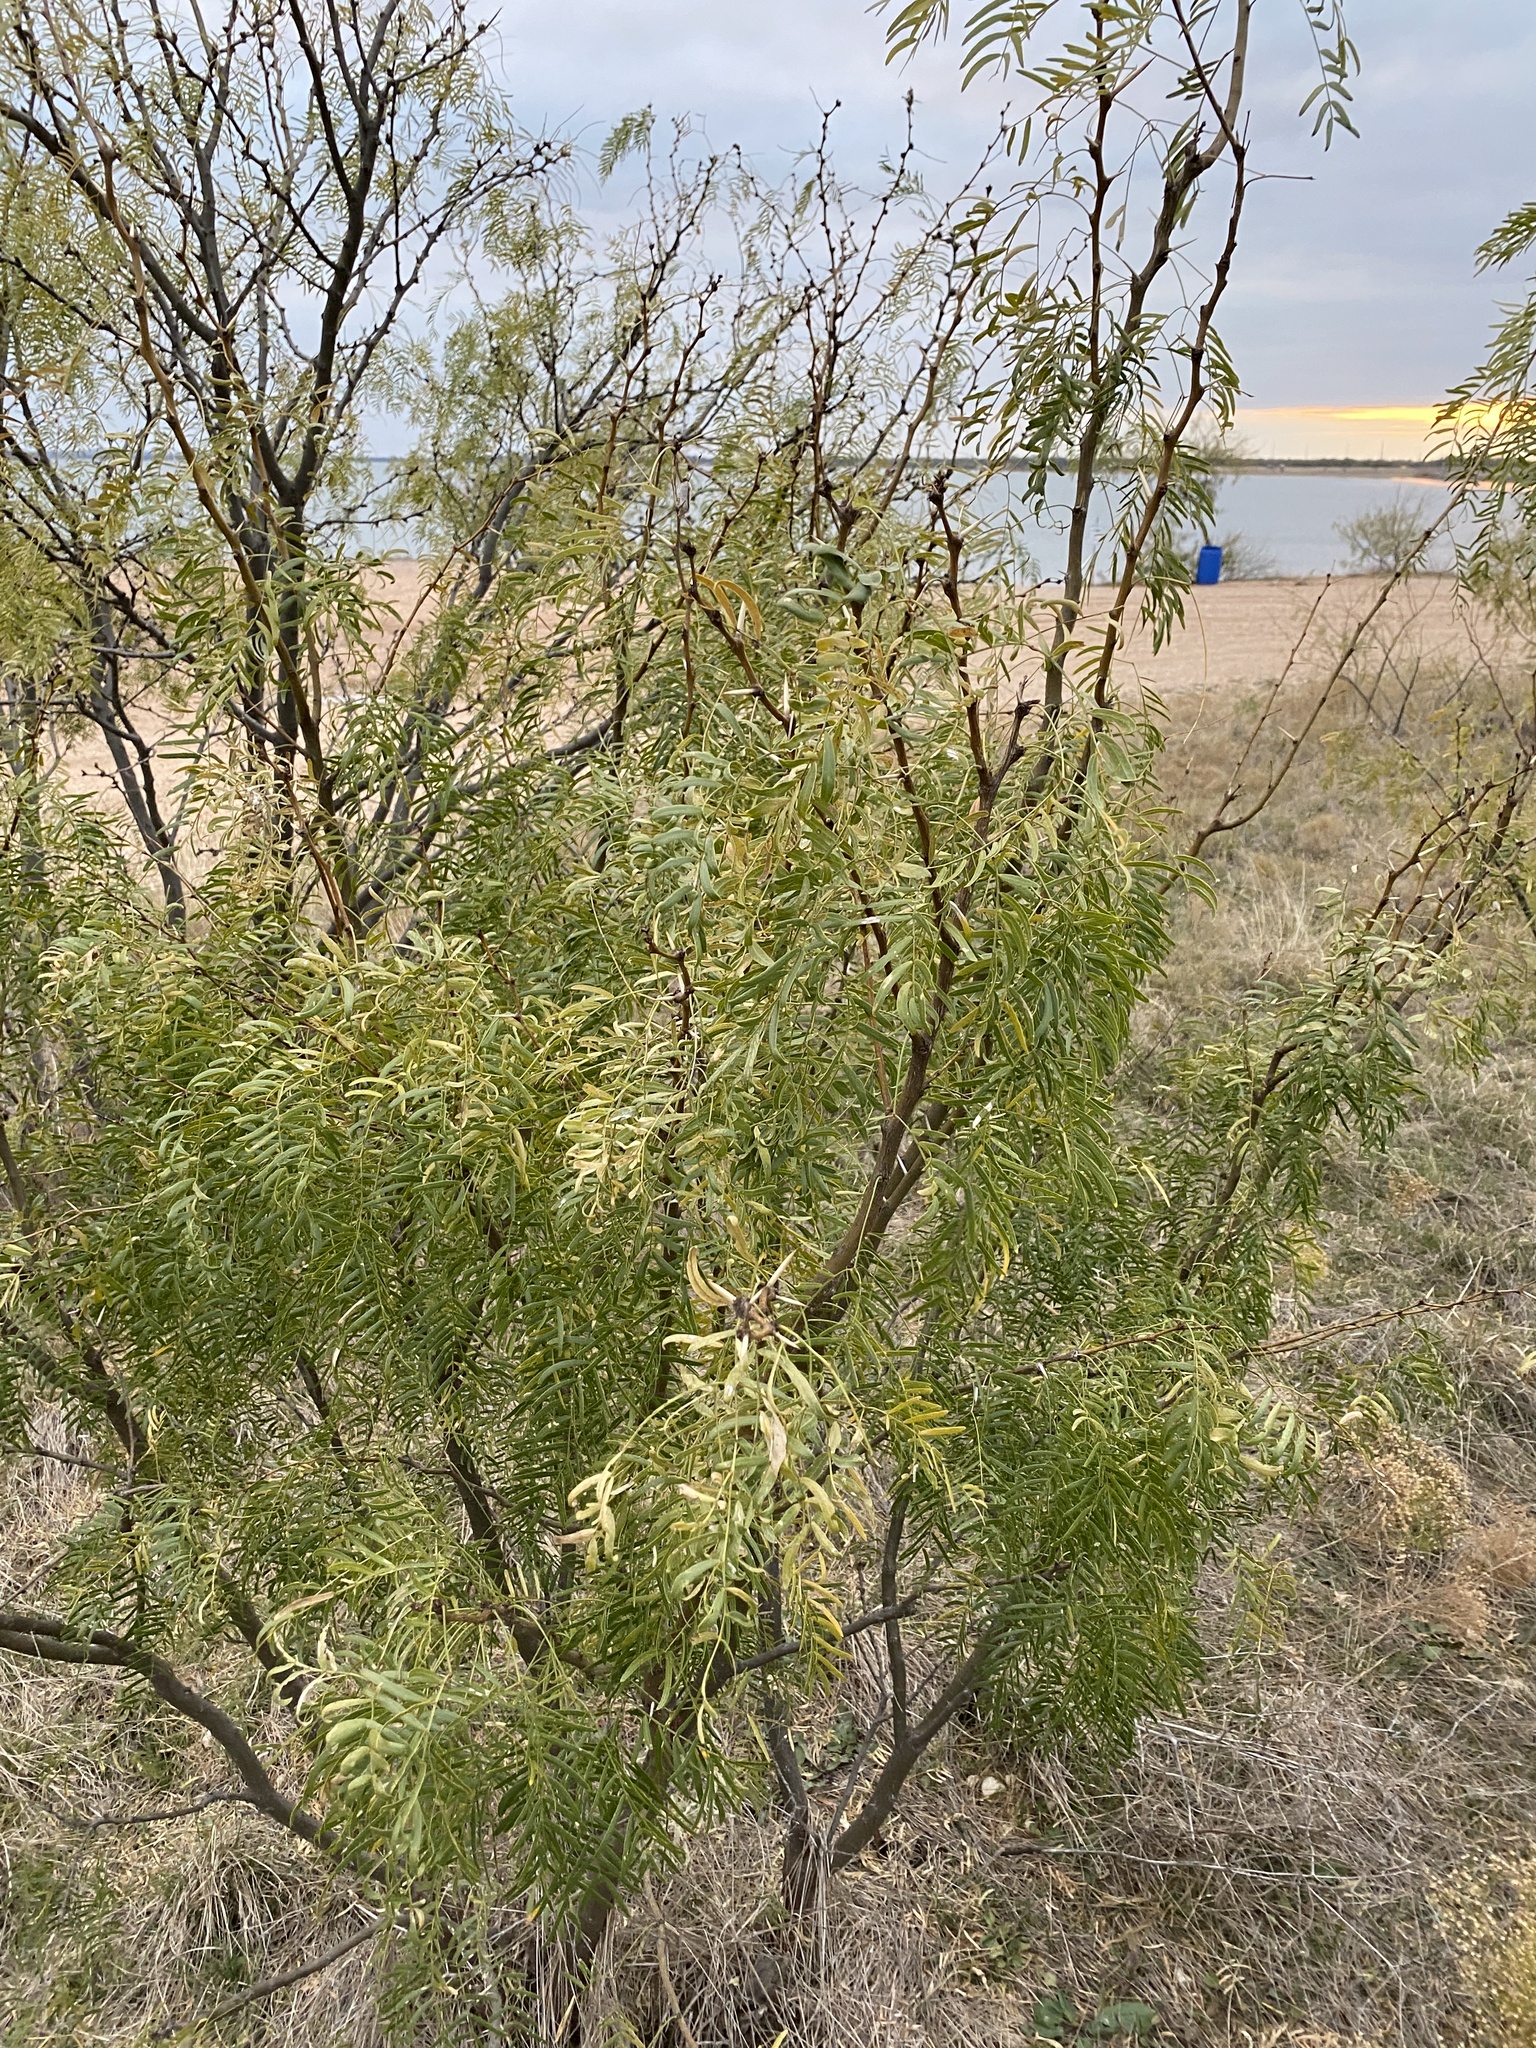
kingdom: Plantae
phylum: Tracheophyta
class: Magnoliopsida
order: Fabales
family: Fabaceae
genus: Prosopis
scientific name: Prosopis glandulosa
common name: Honey mesquite
